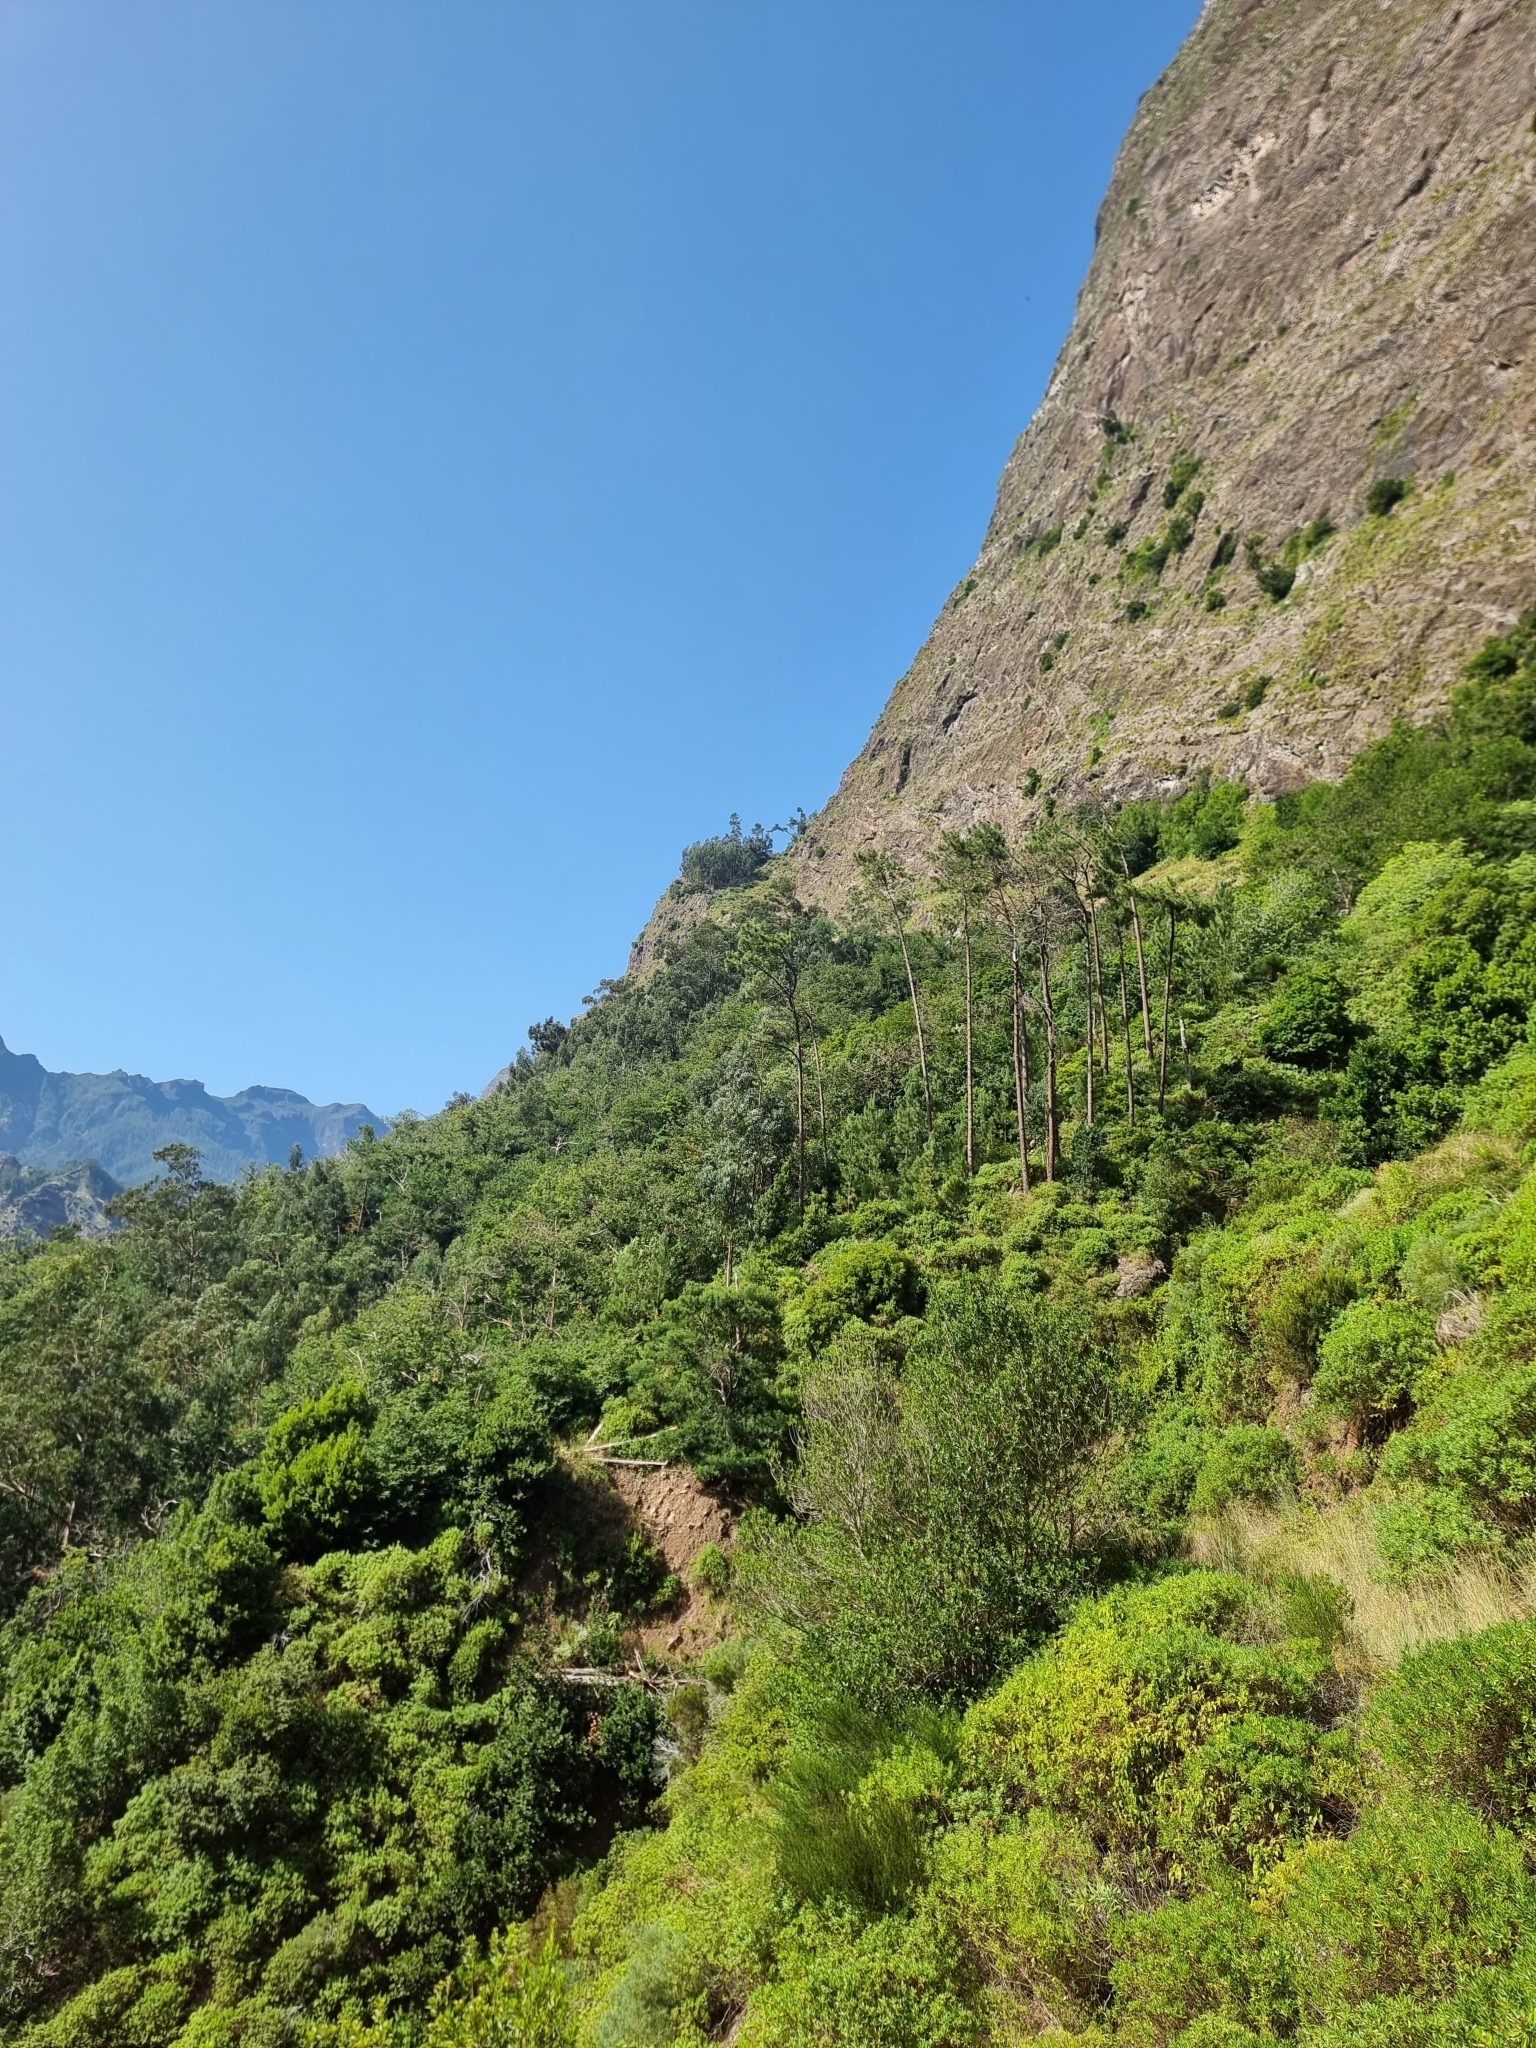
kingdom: Plantae
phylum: Tracheophyta
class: Pinopsida
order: Pinales
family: Pinaceae
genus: Pinus
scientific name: Pinus pinaster
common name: Maritime pine
